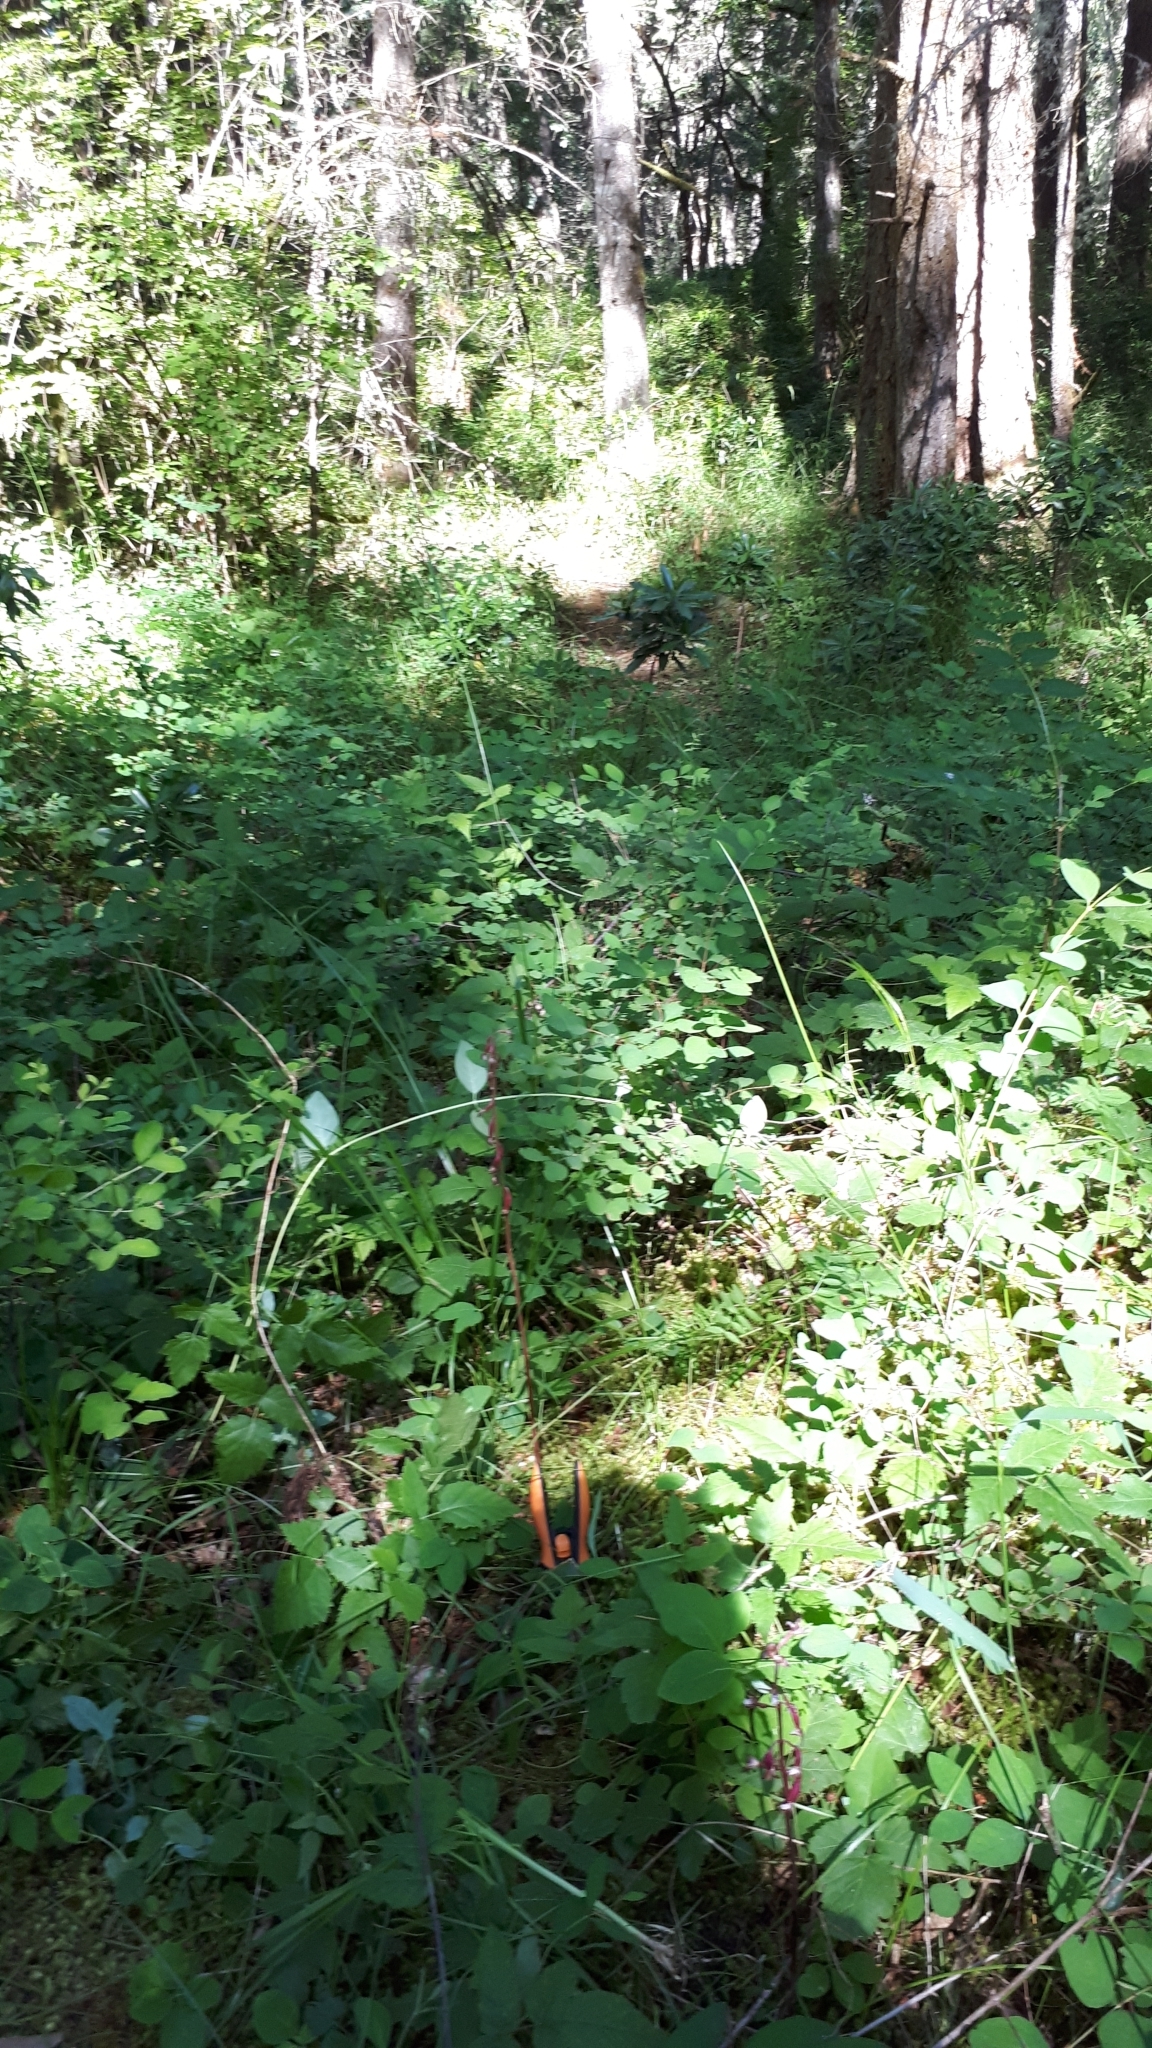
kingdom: Plantae
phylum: Tracheophyta
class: Liliopsida
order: Asparagales
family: Orchidaceae
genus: Corallorhiza
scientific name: Corallorhiza maculata
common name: Spotted coralroot
